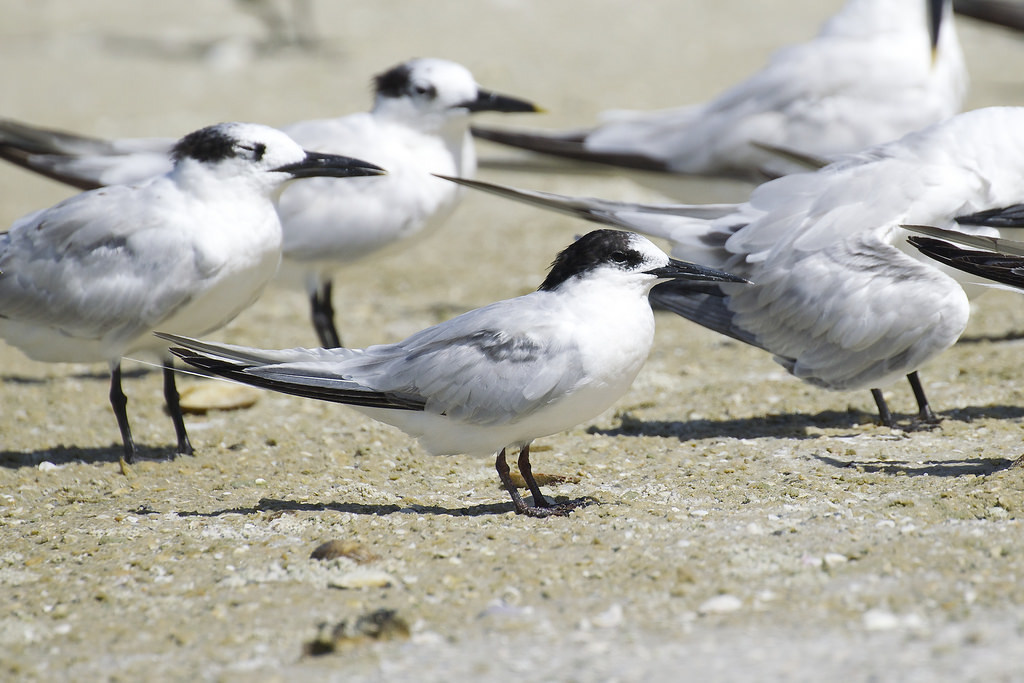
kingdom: Animalia
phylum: Chordata
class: Aves
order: Charadriiformes
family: Laridae
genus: Sterna
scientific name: Sterna dougallii
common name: Roseate tern
